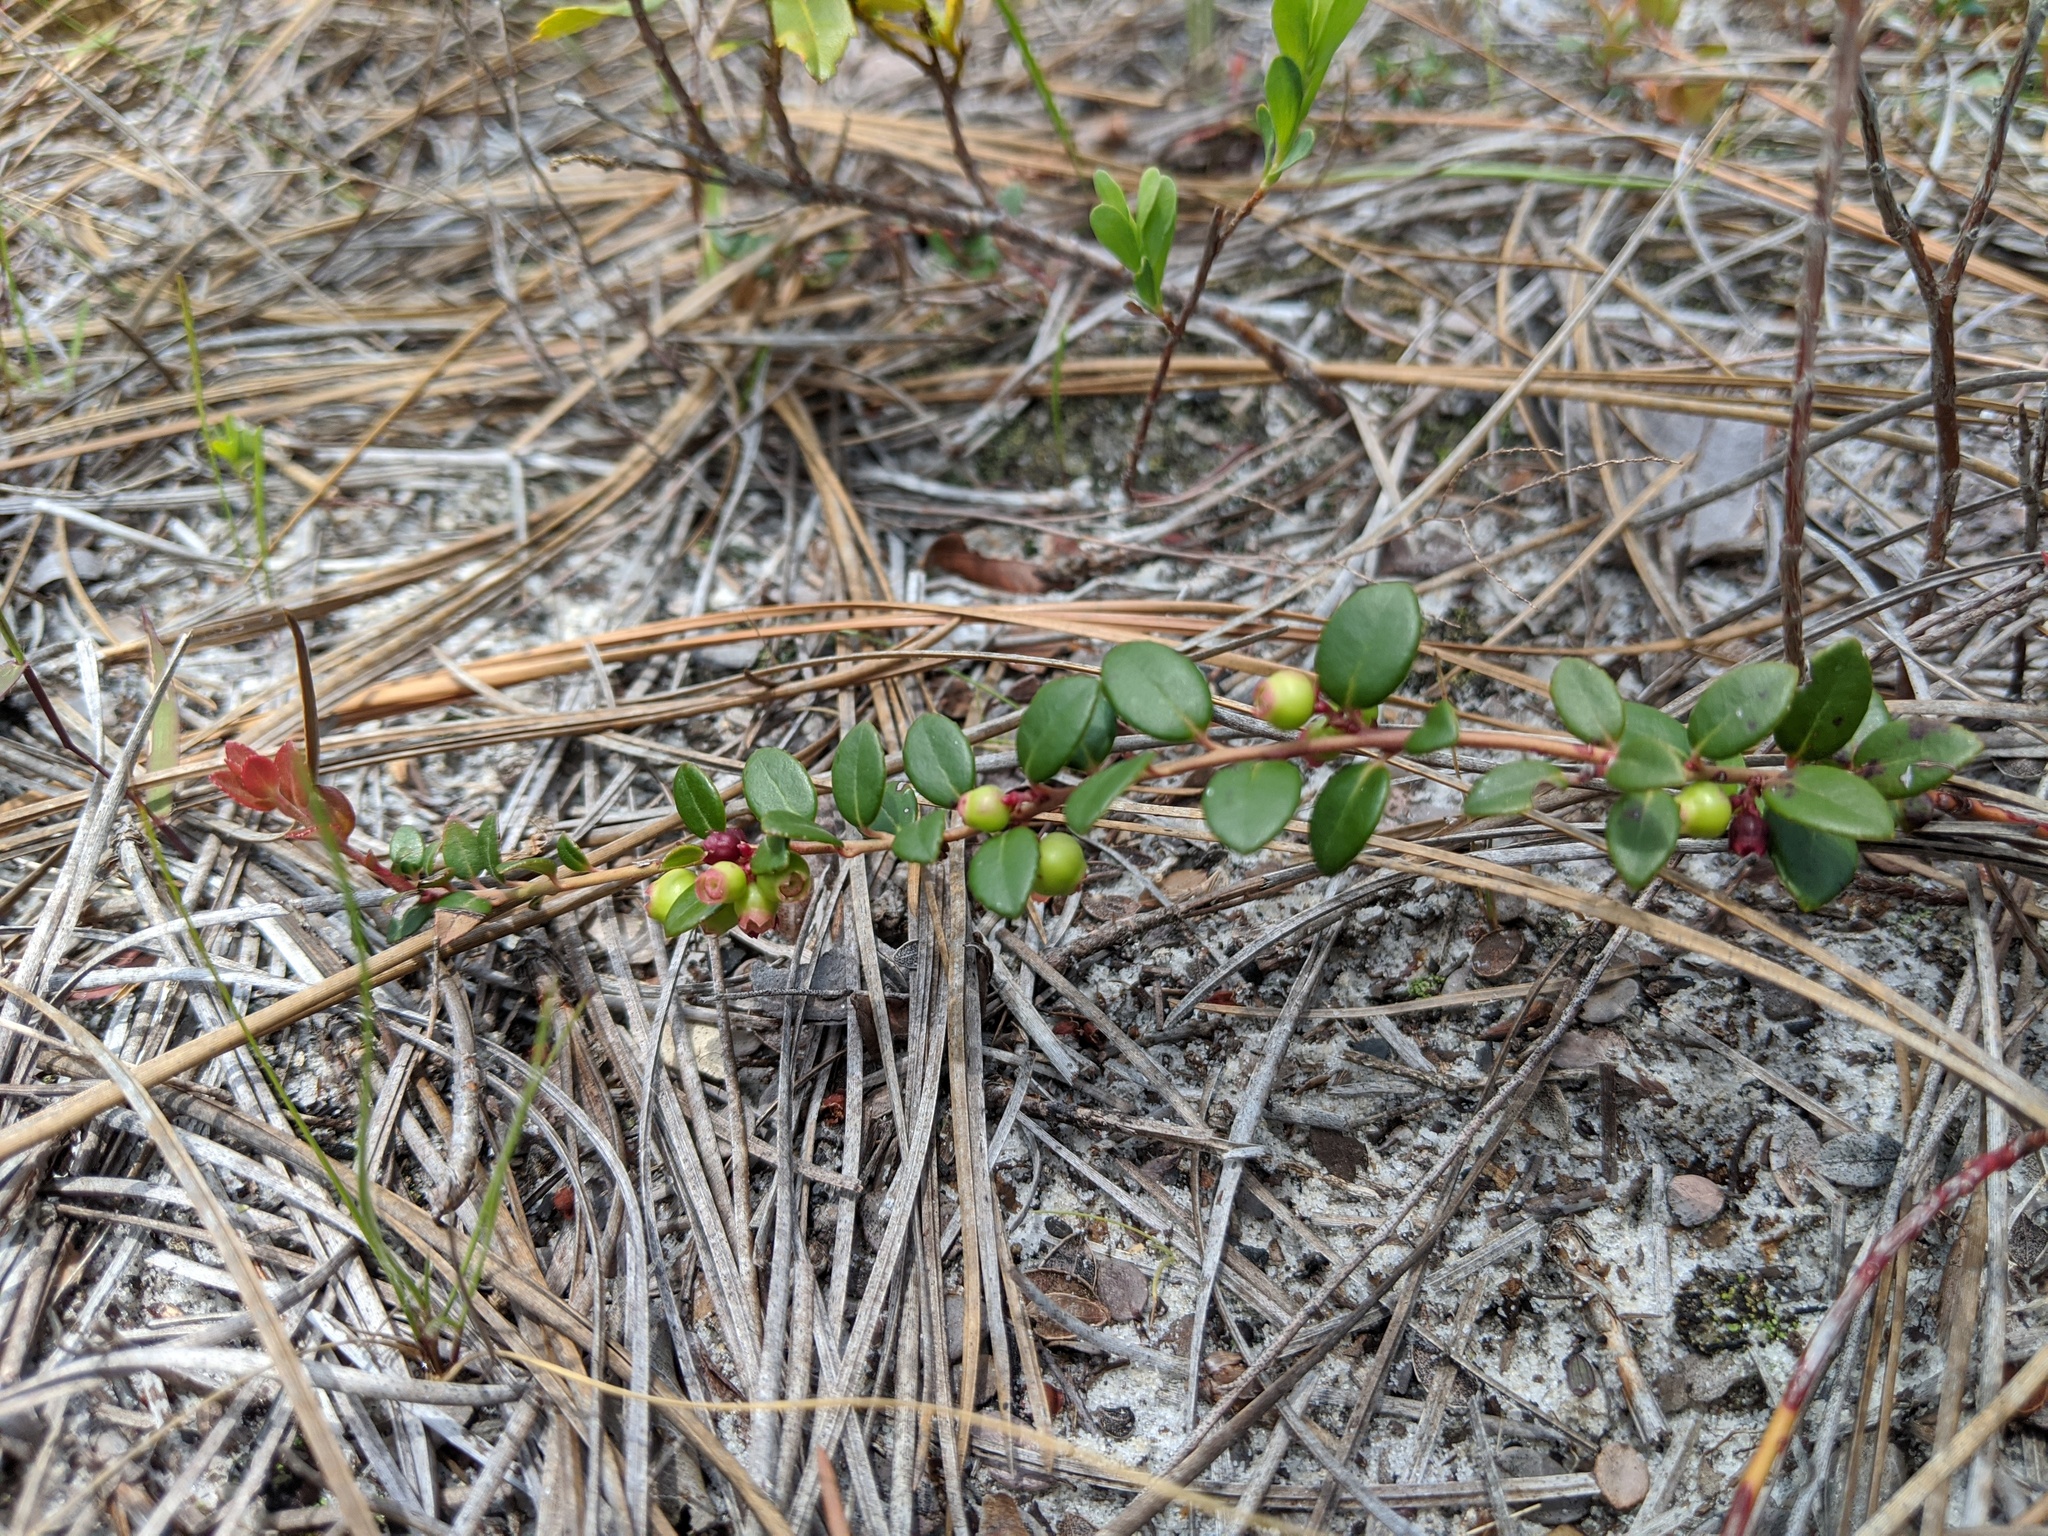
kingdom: Plantae
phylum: Tracheophyta
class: Magnoliopsida
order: Ericales
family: Ericaceae
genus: Vaccinium
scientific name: Vaccinium crassifolium
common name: Creeping blueberry
